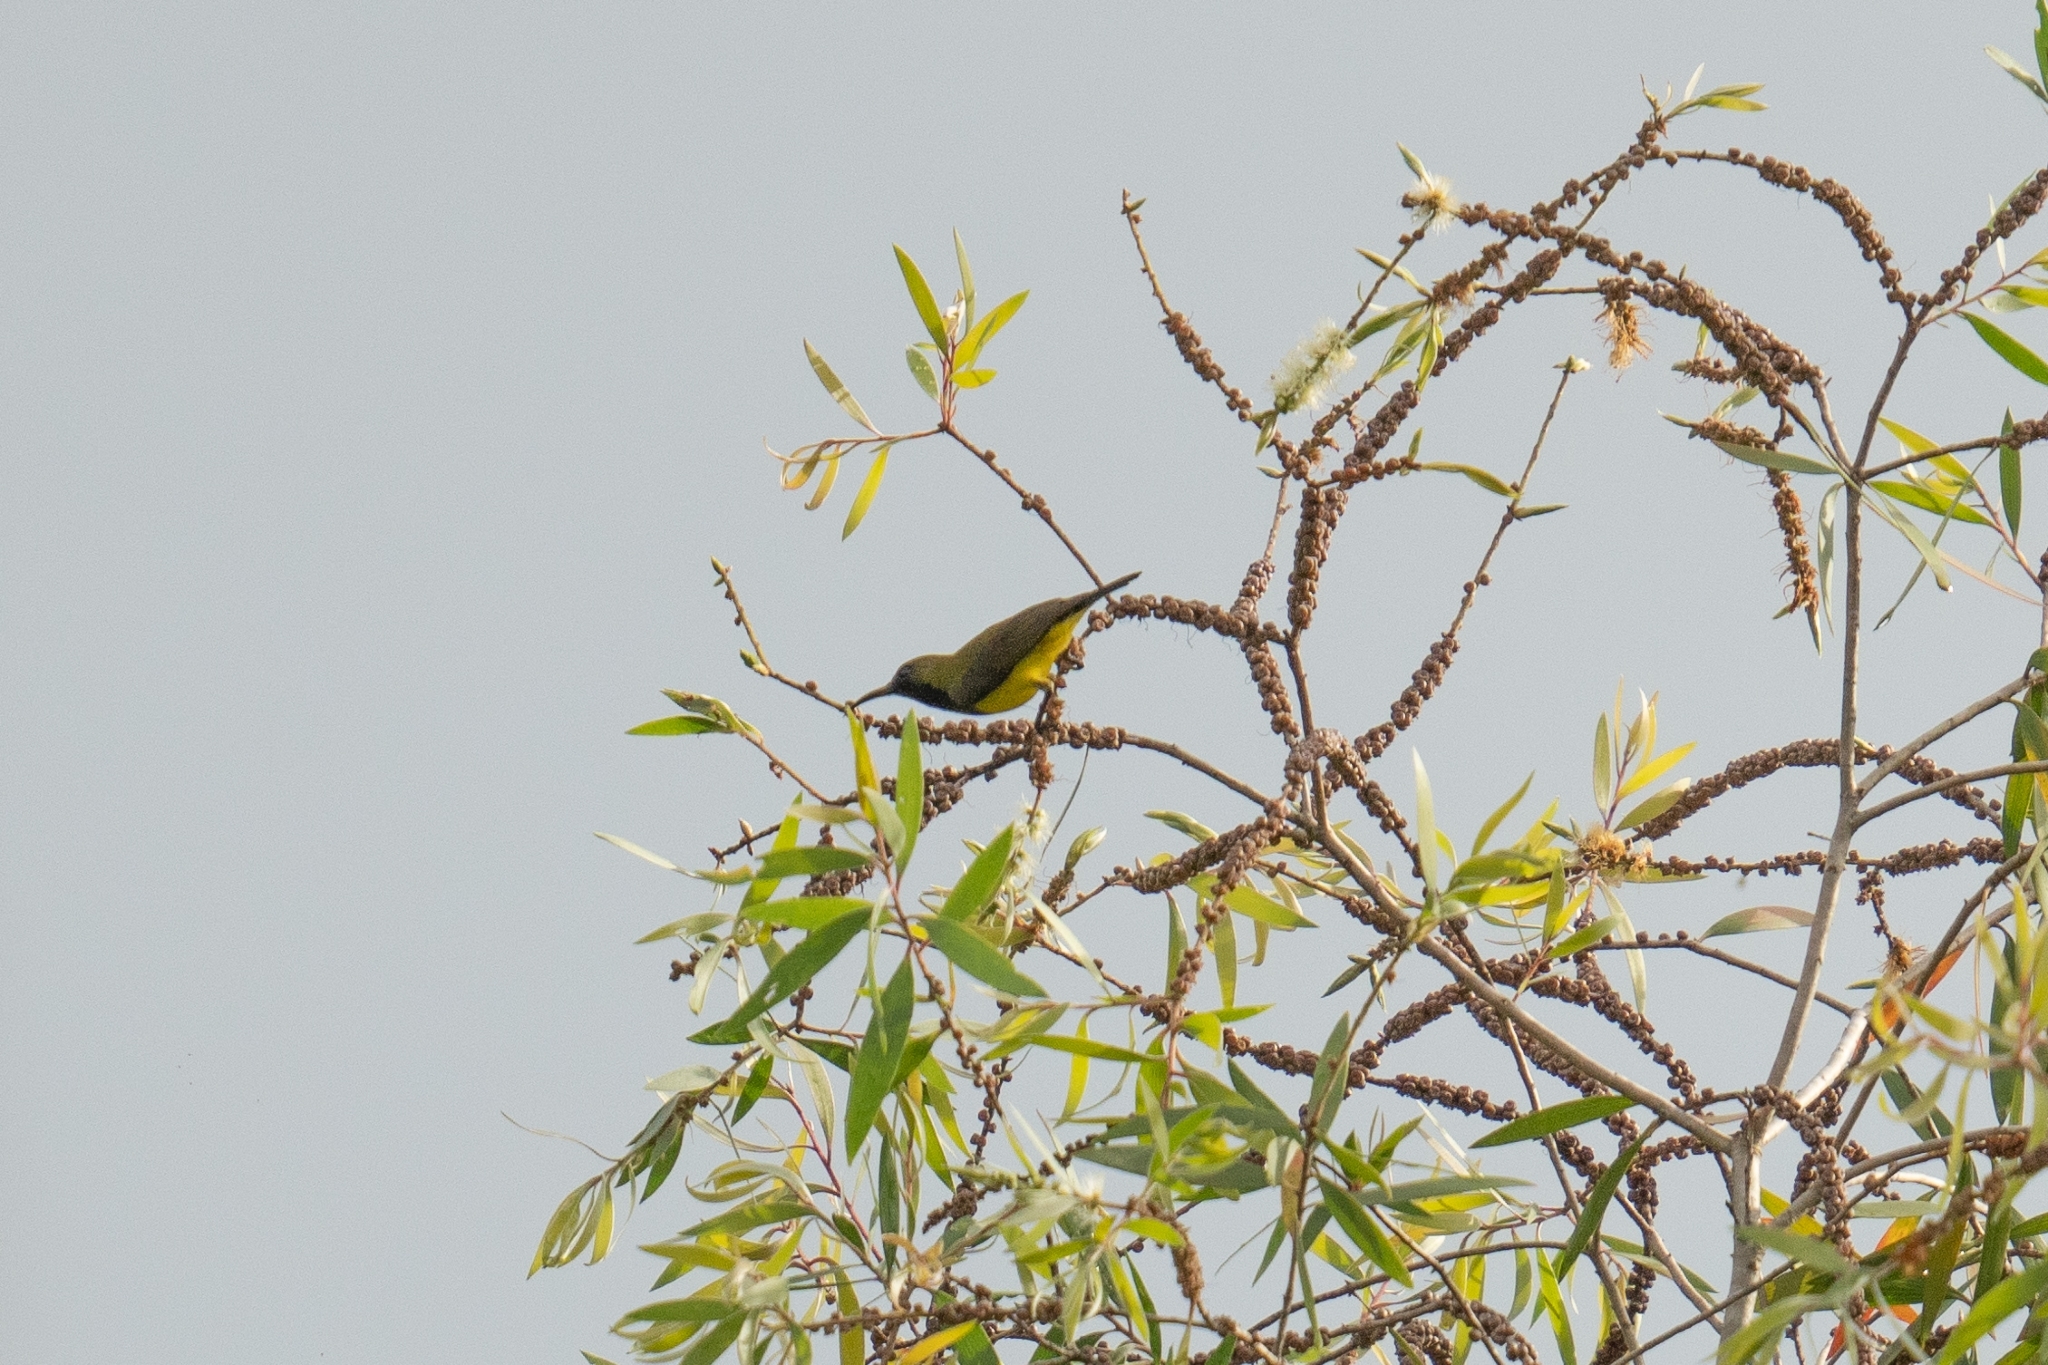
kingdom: Animalia
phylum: Chordata
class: Aves
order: Passeriformes
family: Nectariniidae
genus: Cinnyris
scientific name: Cinnyris
